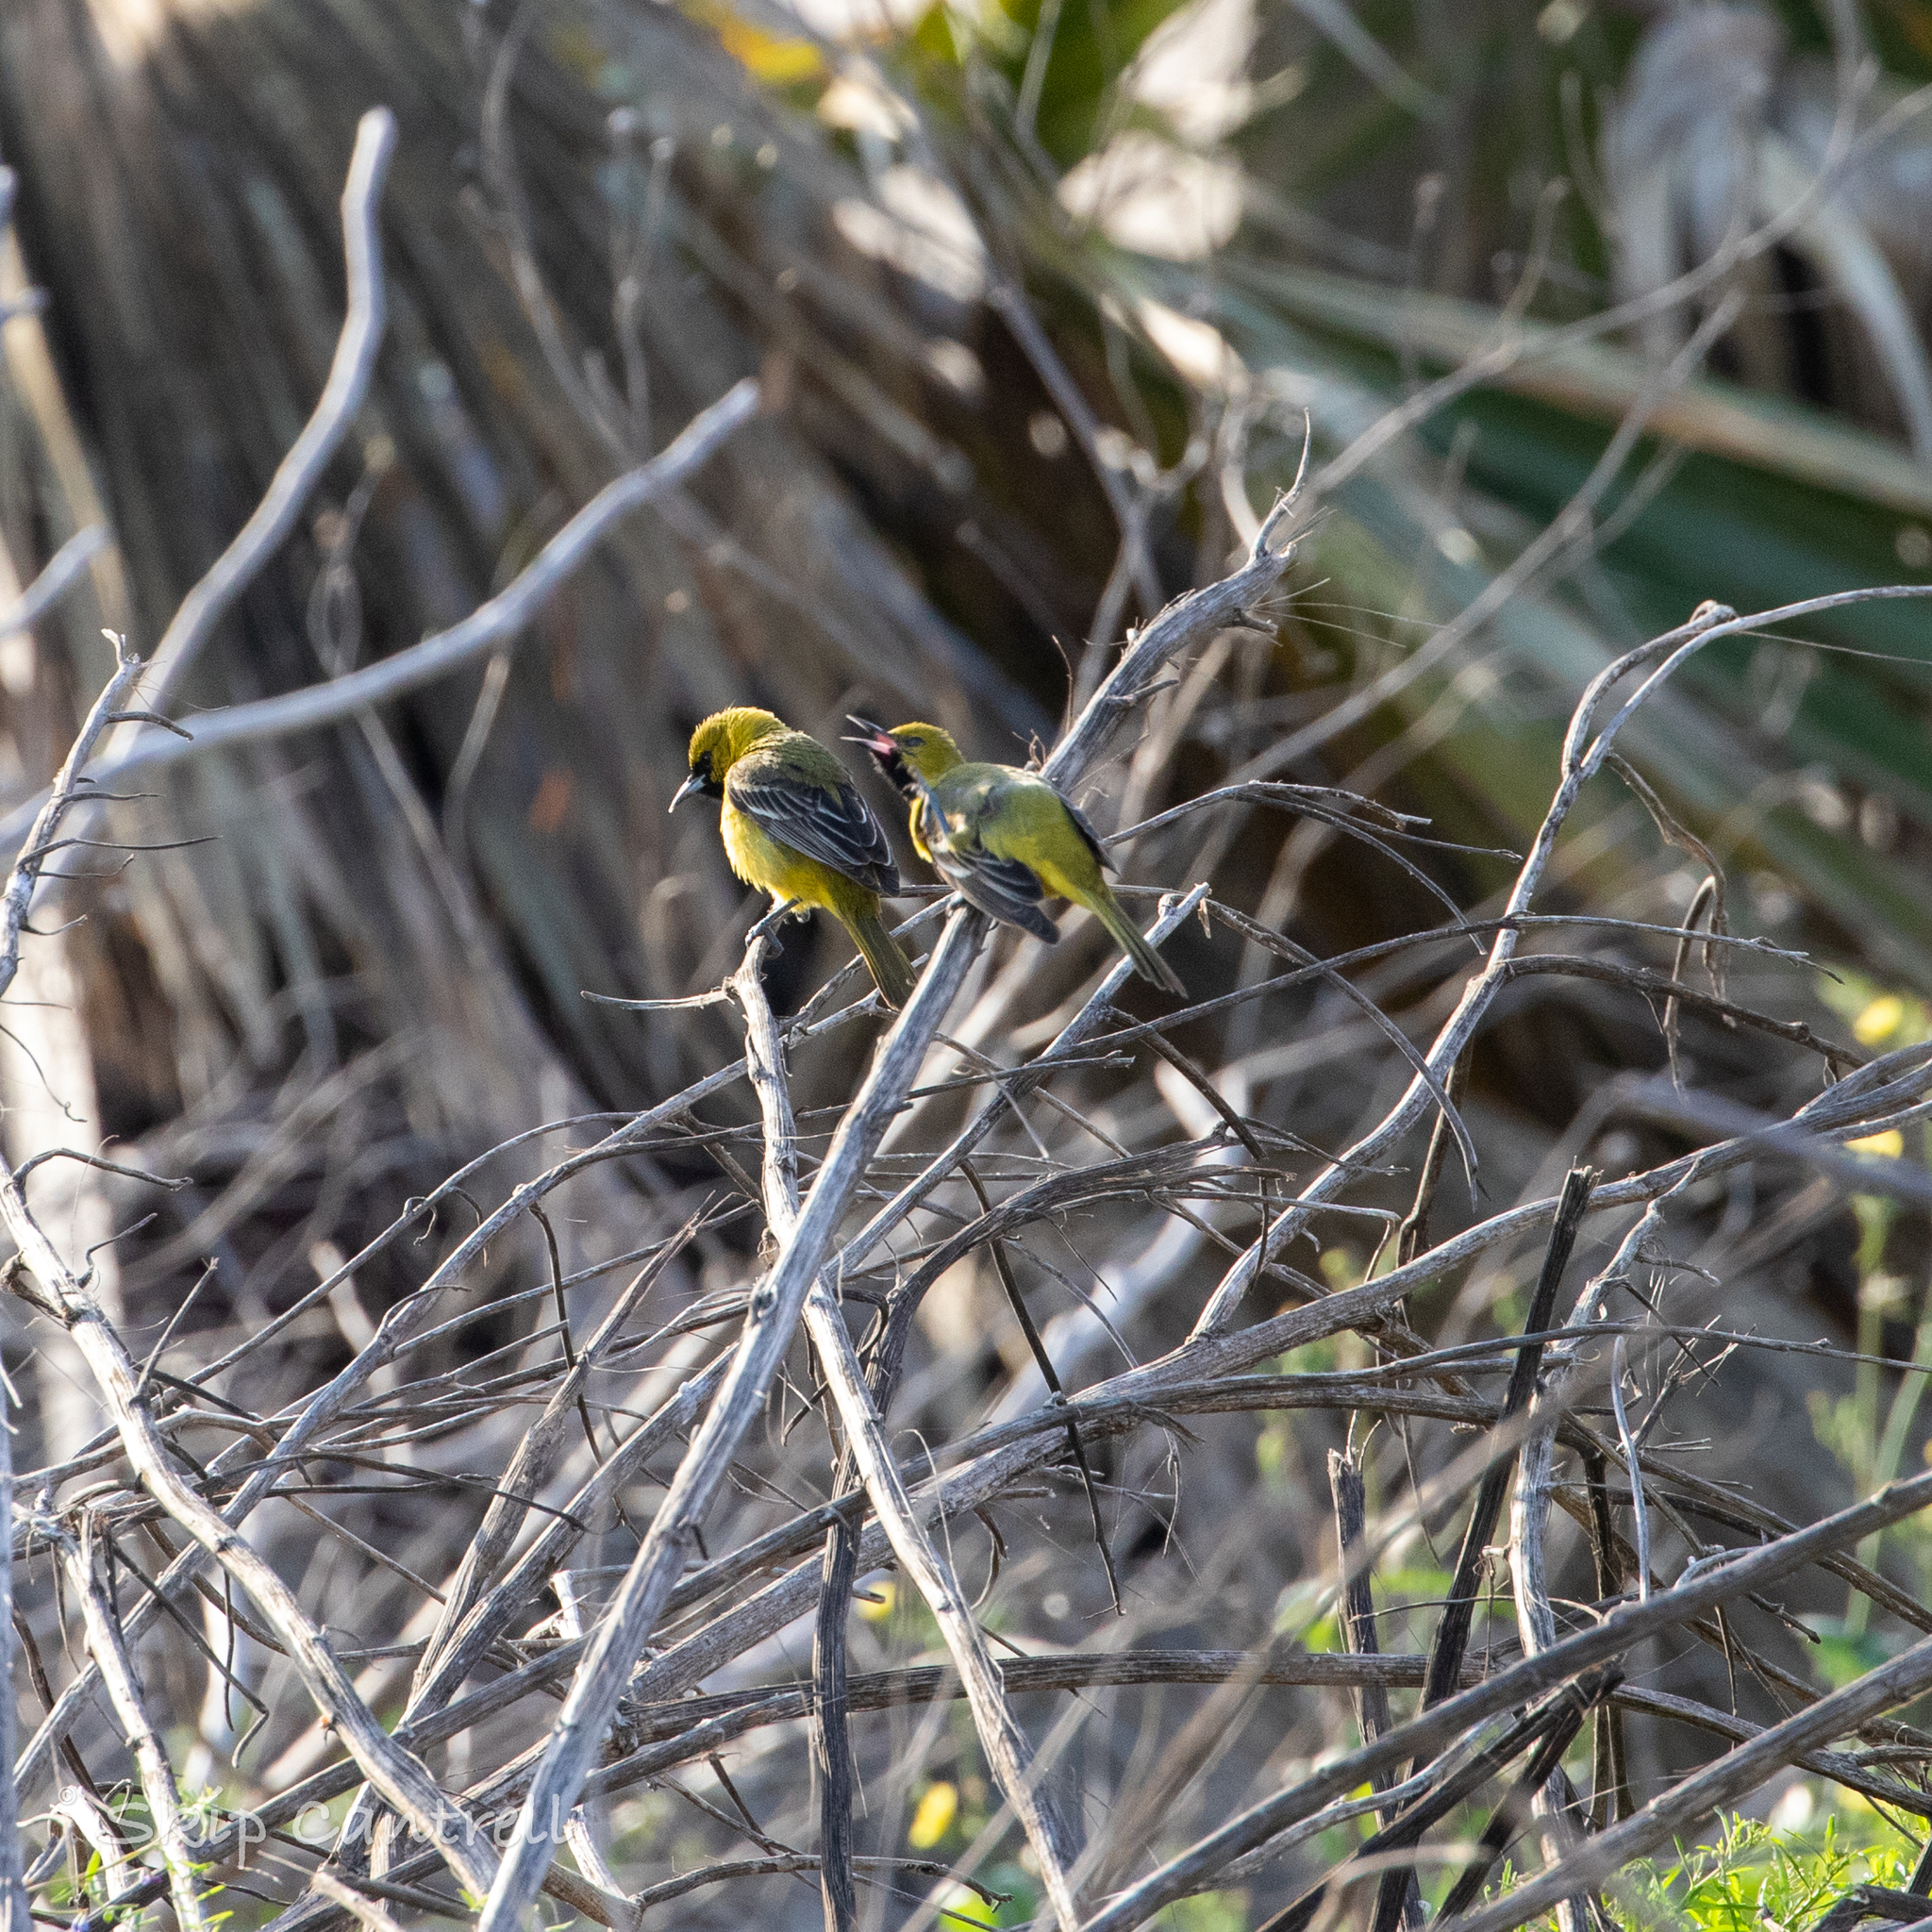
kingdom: Animalia
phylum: Chordata
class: Aves
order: Passeriformes
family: Icteridae
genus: Icterus
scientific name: Icterus spurius
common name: Orchard oriole
